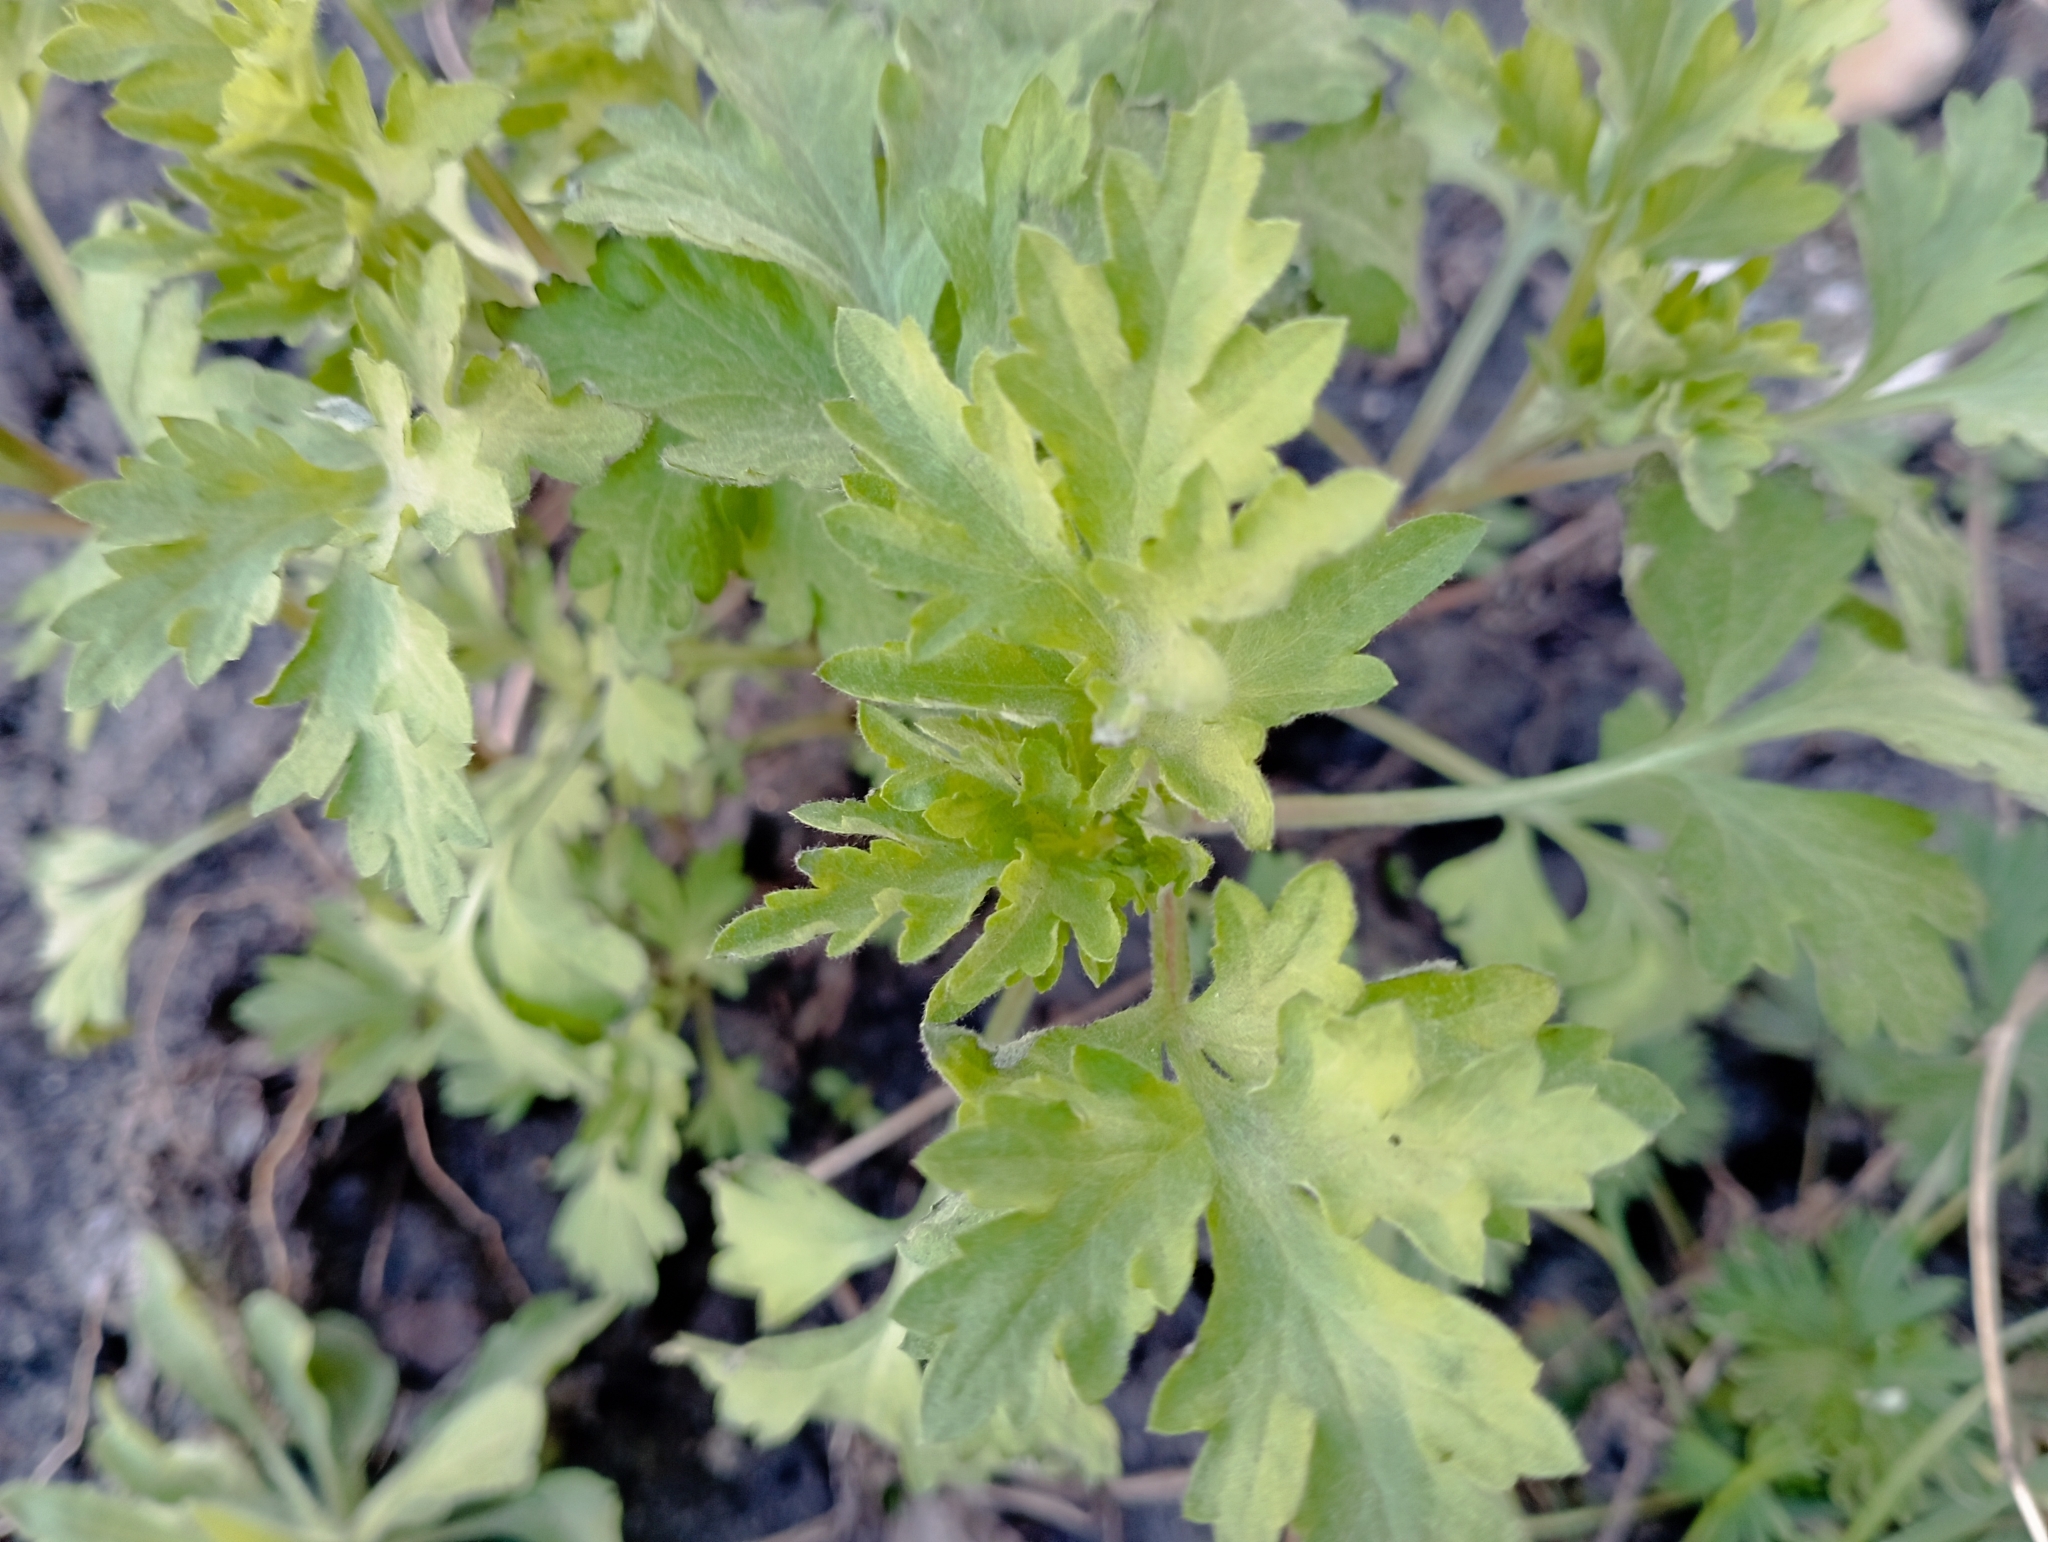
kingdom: Plantae
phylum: Tracheophyta
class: Magnoliopsida
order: Asterales
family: Asteraceae
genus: Artemisia
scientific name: Artemisia vulgaris
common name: Mugwort
